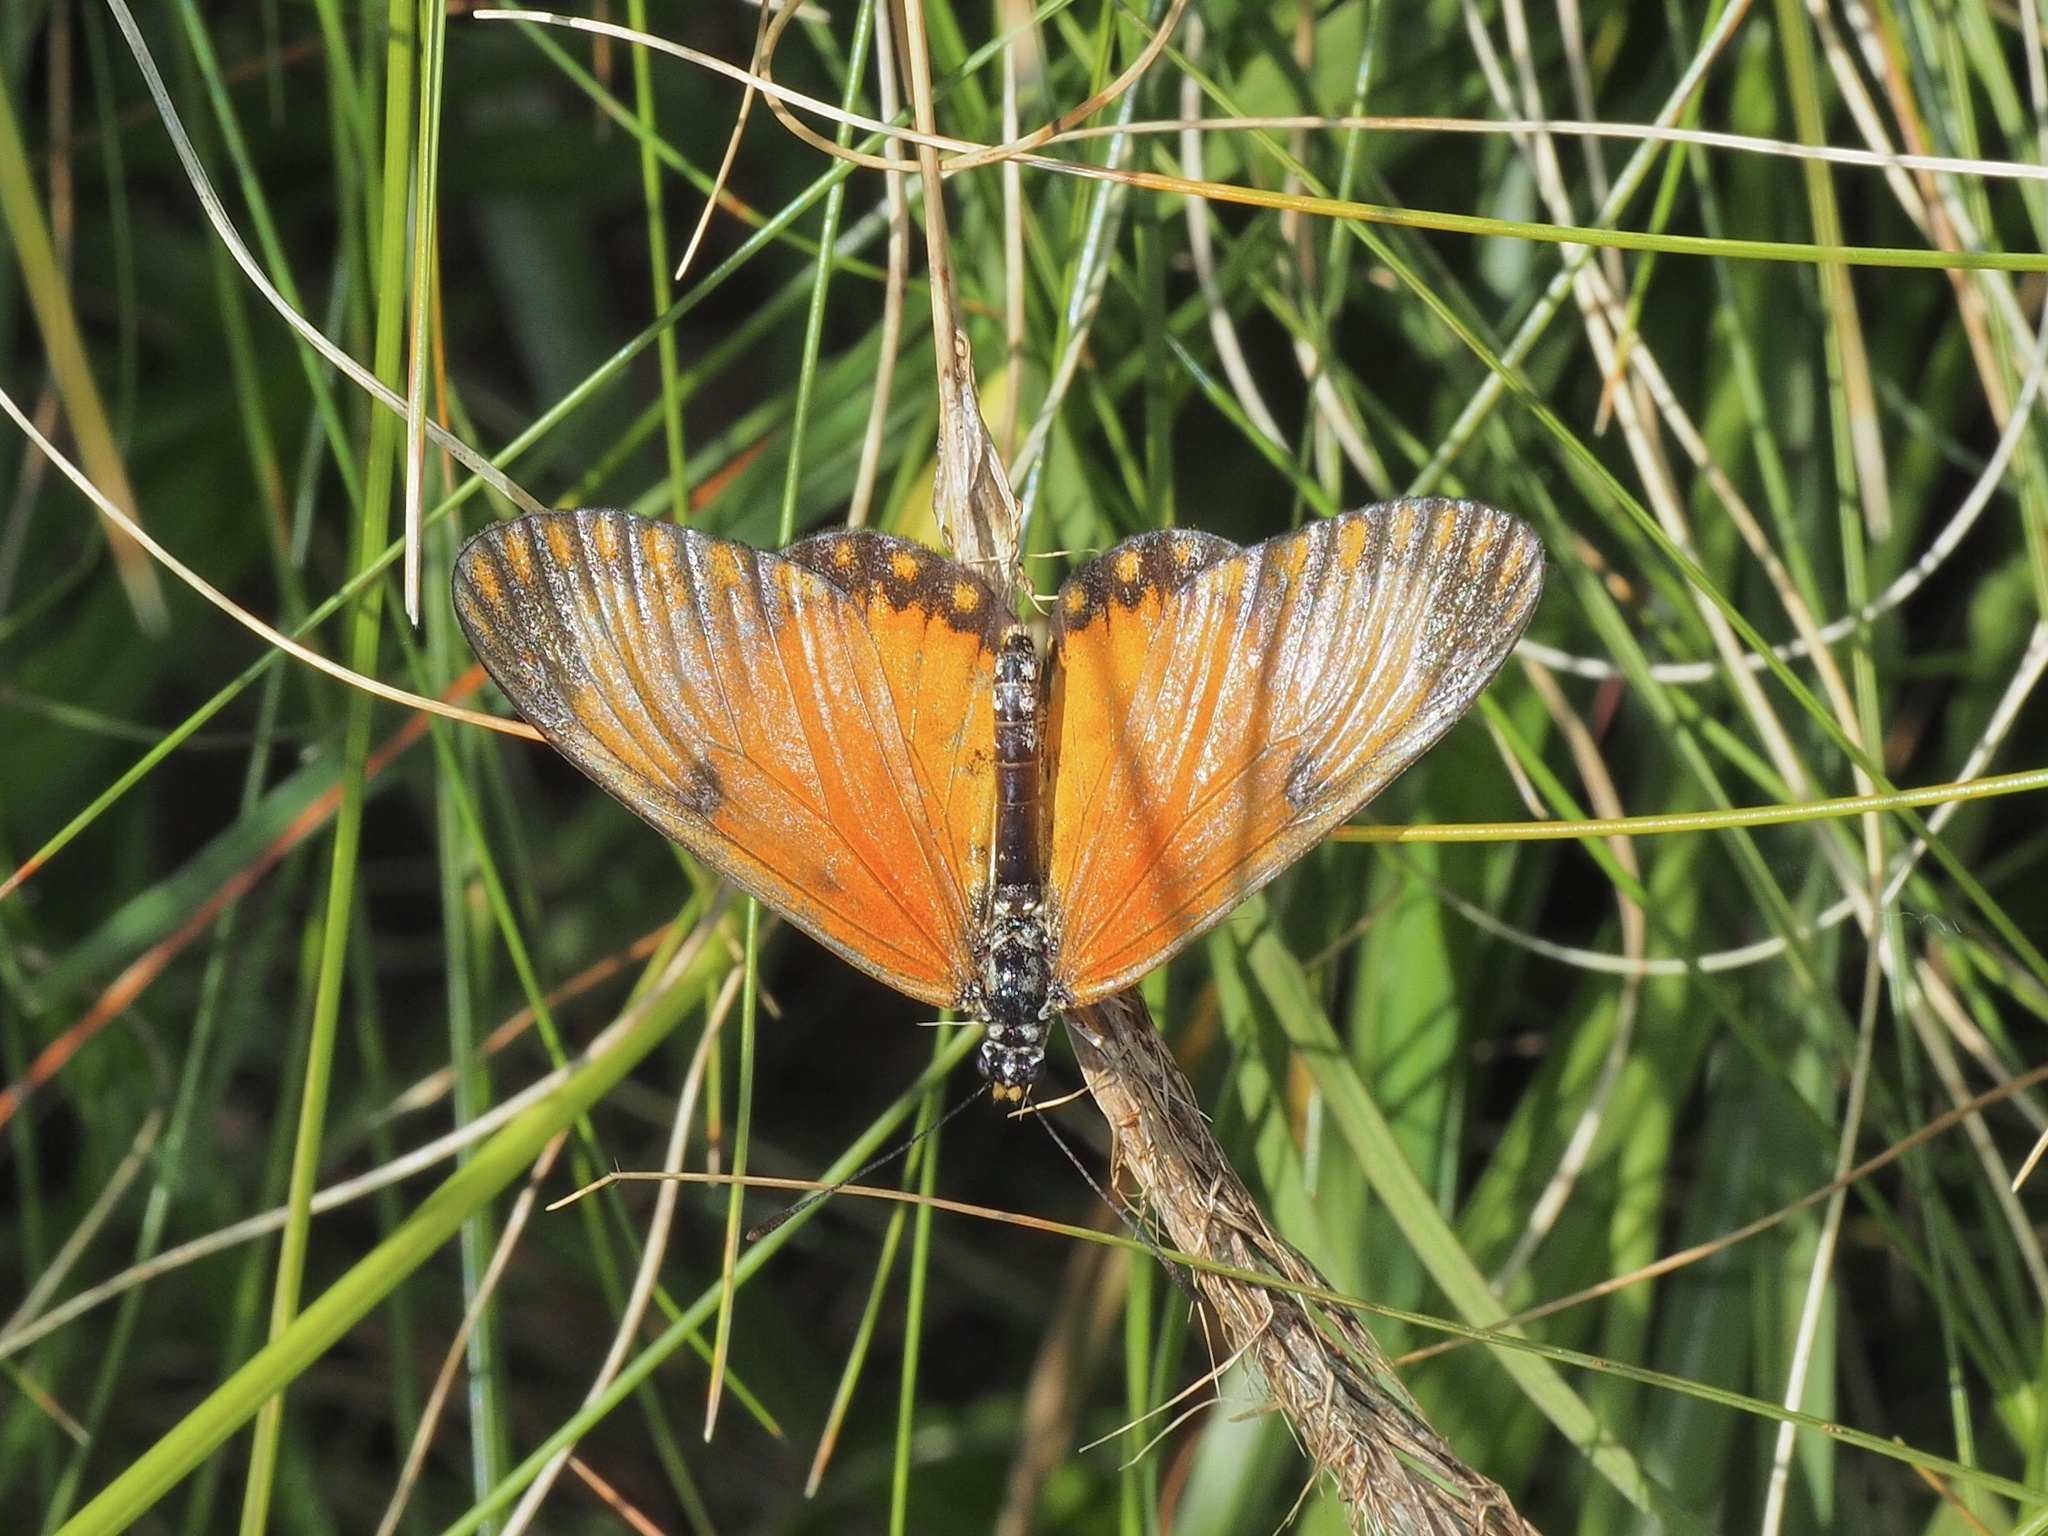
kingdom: Animalia
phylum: Arthropoda
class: Insecta
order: Lepidoptera
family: Nymphalidae
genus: Acraea
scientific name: Acraea Telchinia serena
